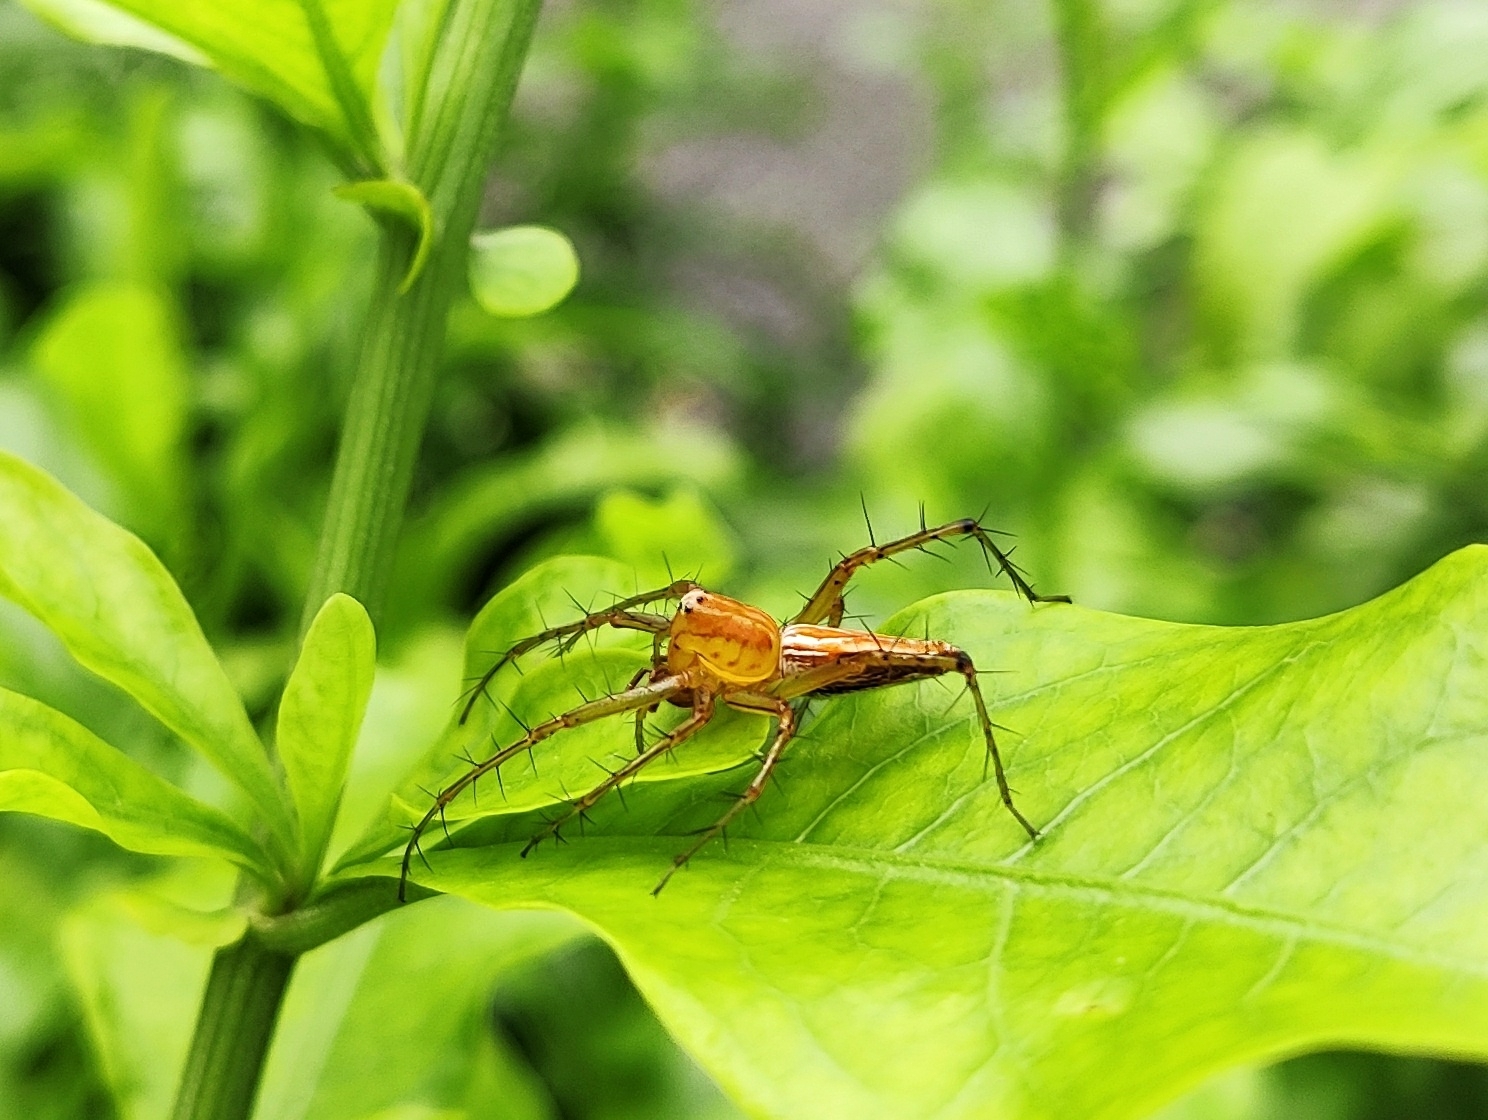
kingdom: Animalia
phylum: Arthropoda
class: Arachnida
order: Araneae
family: Oxyopidae
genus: Oxyopes
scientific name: Oxyopes javanus
